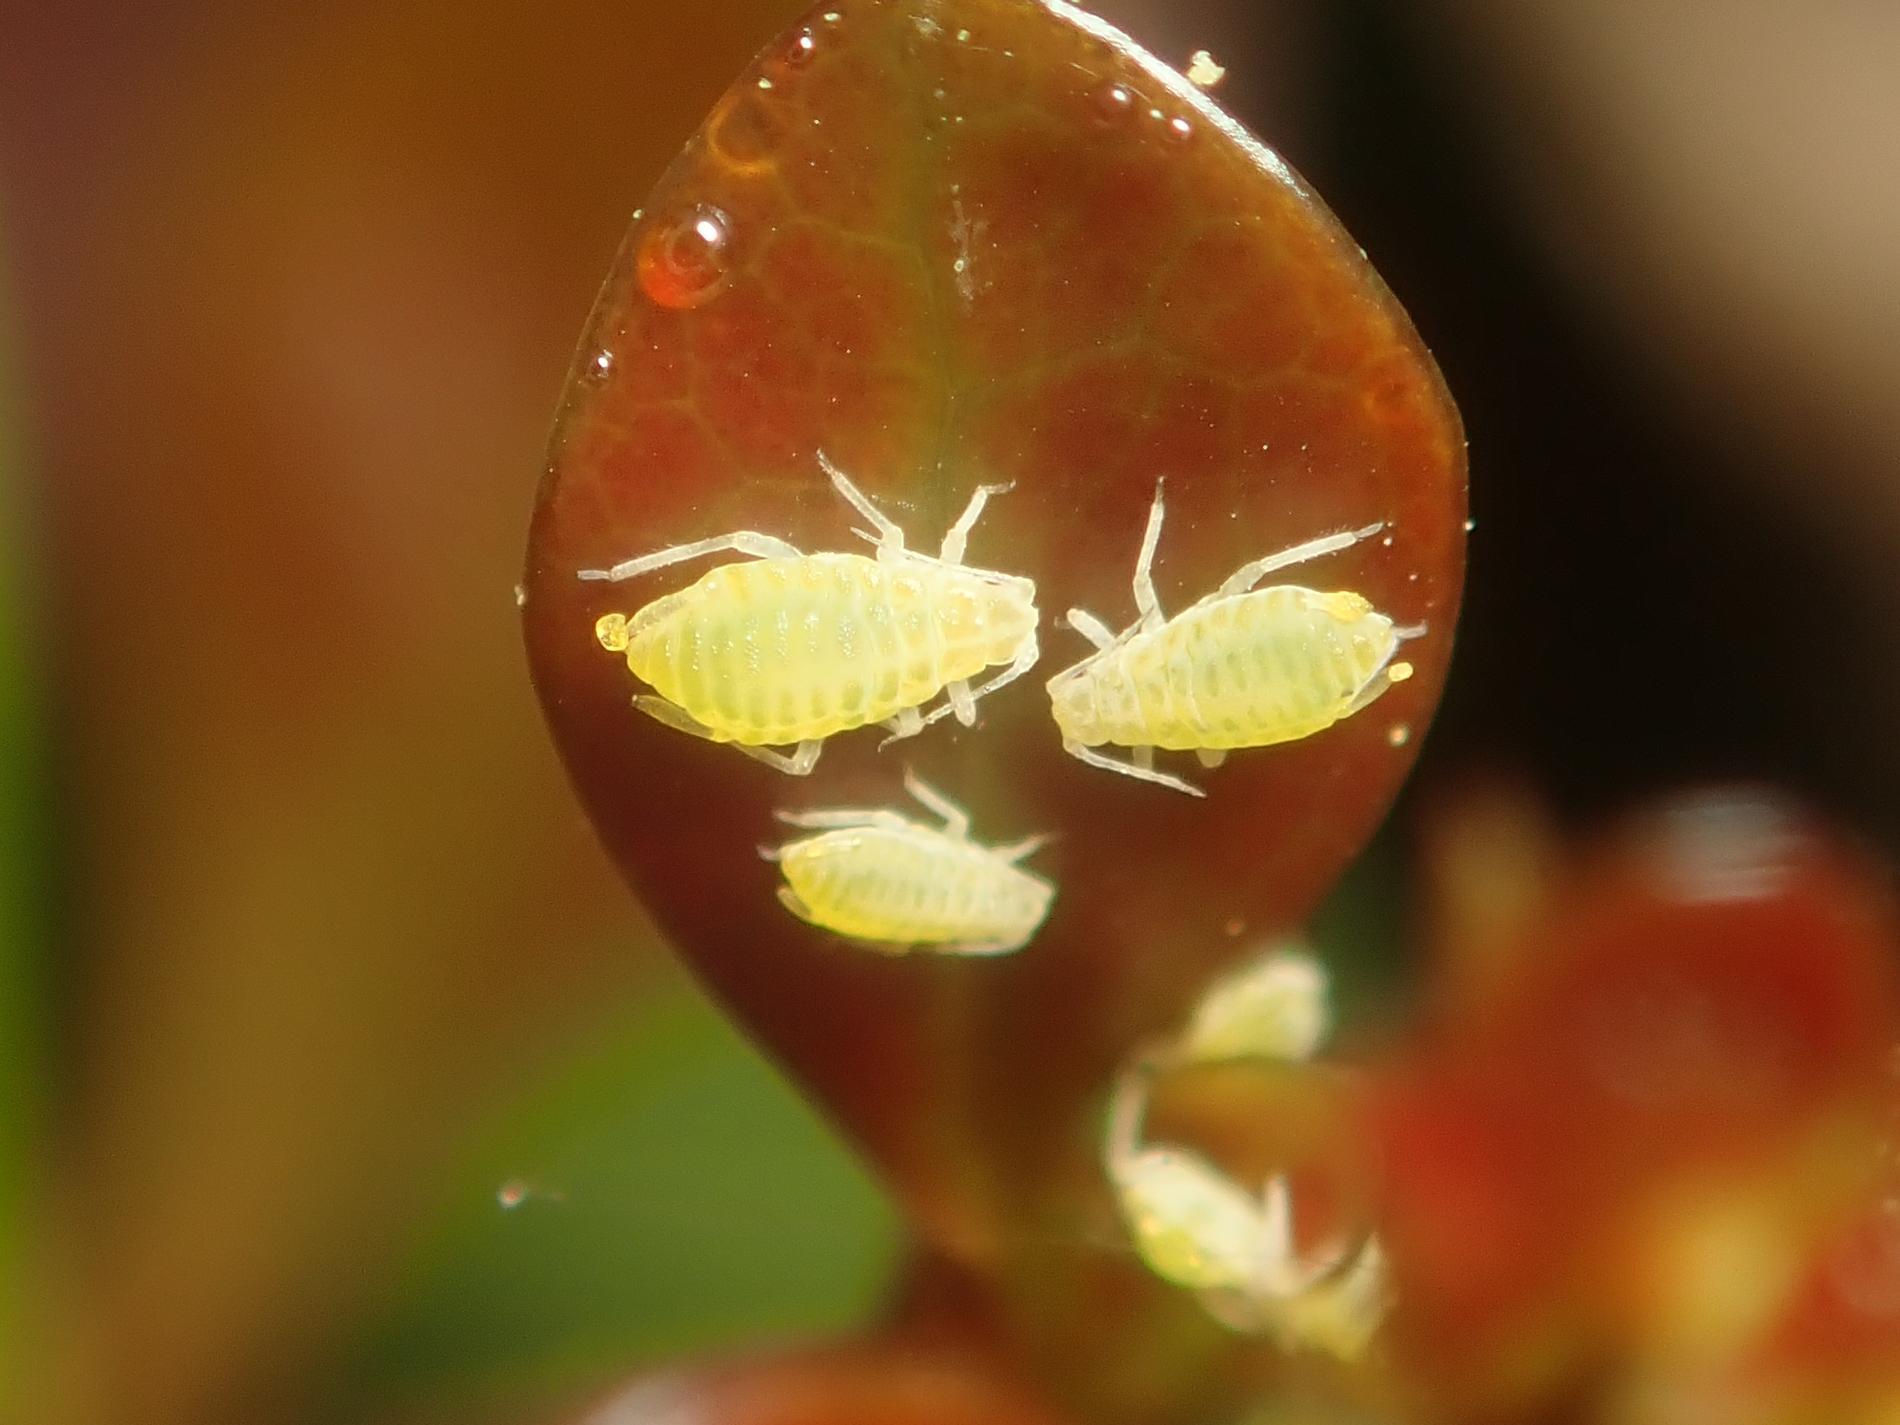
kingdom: Animalia
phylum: Arthropoda
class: Insecta
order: Hemiptera
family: Aphididae
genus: Liosomaphis
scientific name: Liosomaphis berberidis
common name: Barberry aphid
